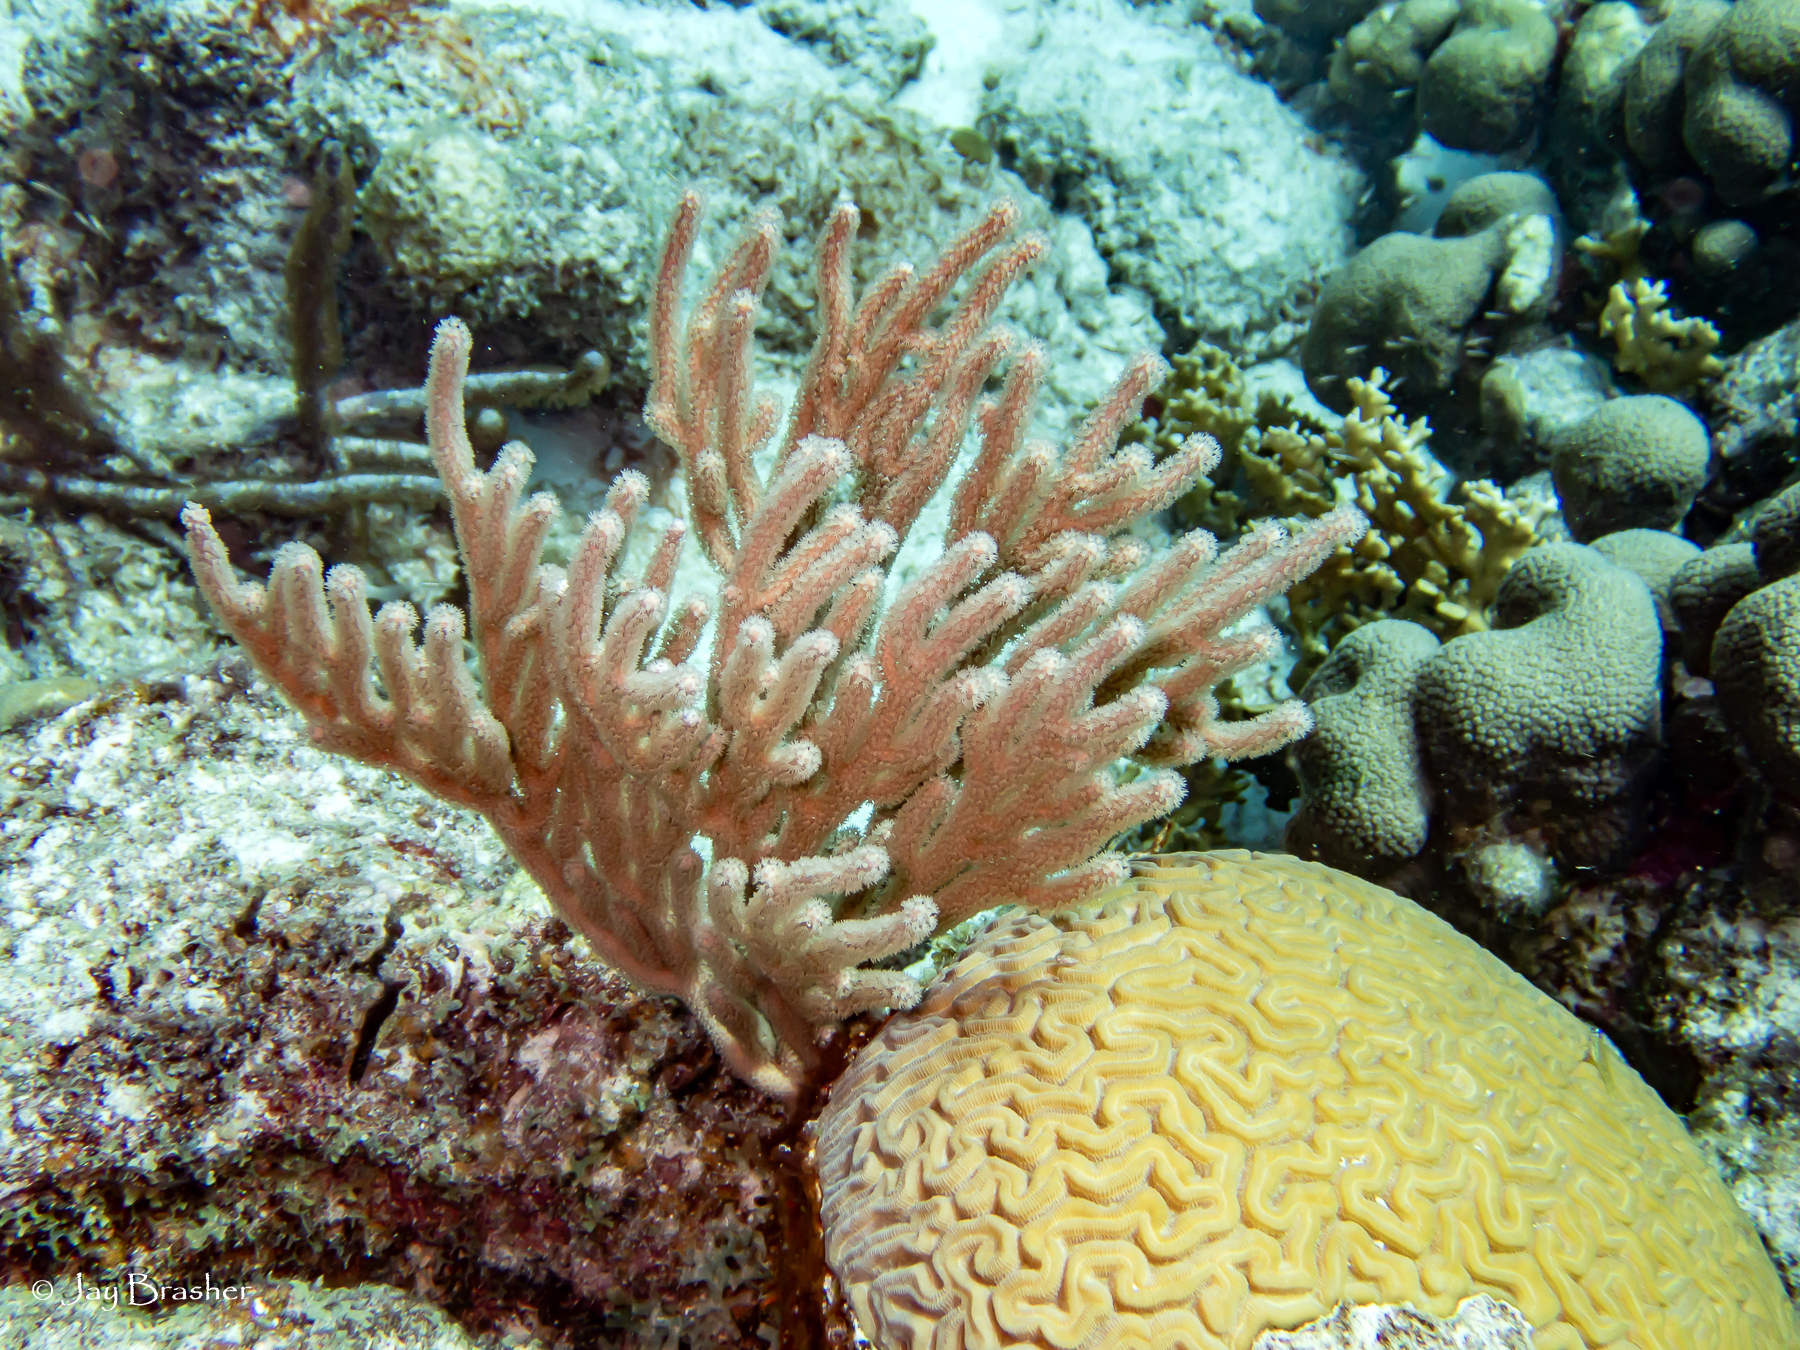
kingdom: Animalia
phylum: Cnidaria
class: Anthozoa
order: Scleractinia
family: Faviidae
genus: Diploria
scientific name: Diploria labyrinthiformis
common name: Grooved brain coral
